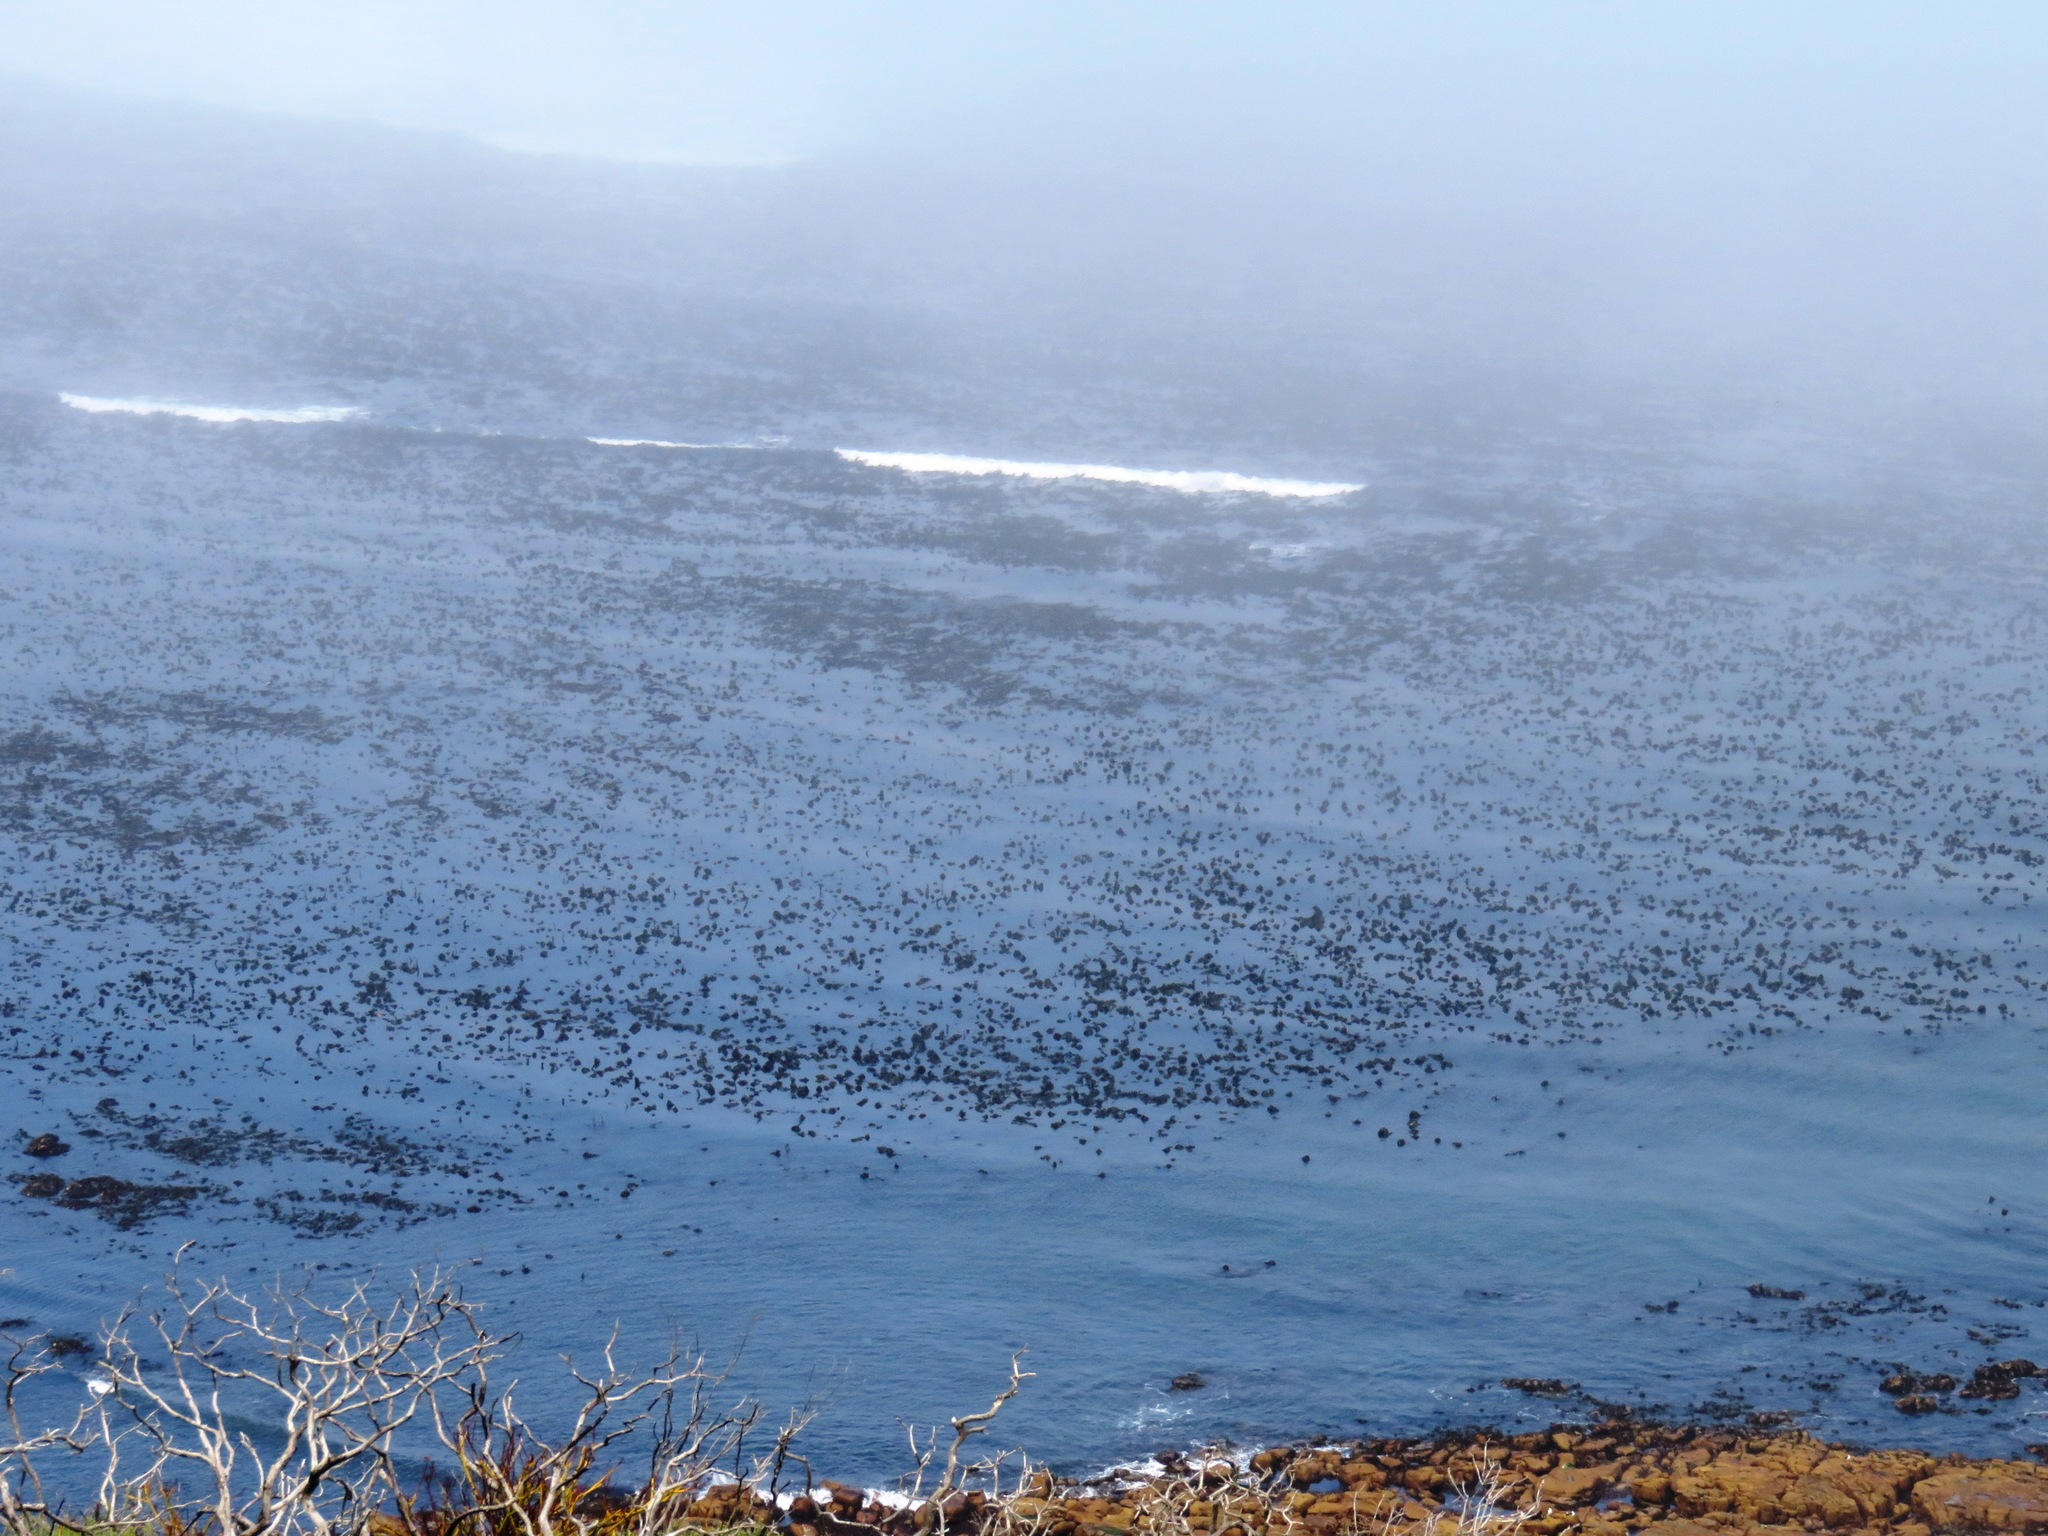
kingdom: Chromista
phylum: Ochrophyta
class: Phaeophyceae
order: Laminariales
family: Lessoniaceae
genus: Ecklonia
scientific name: Ecklonia
